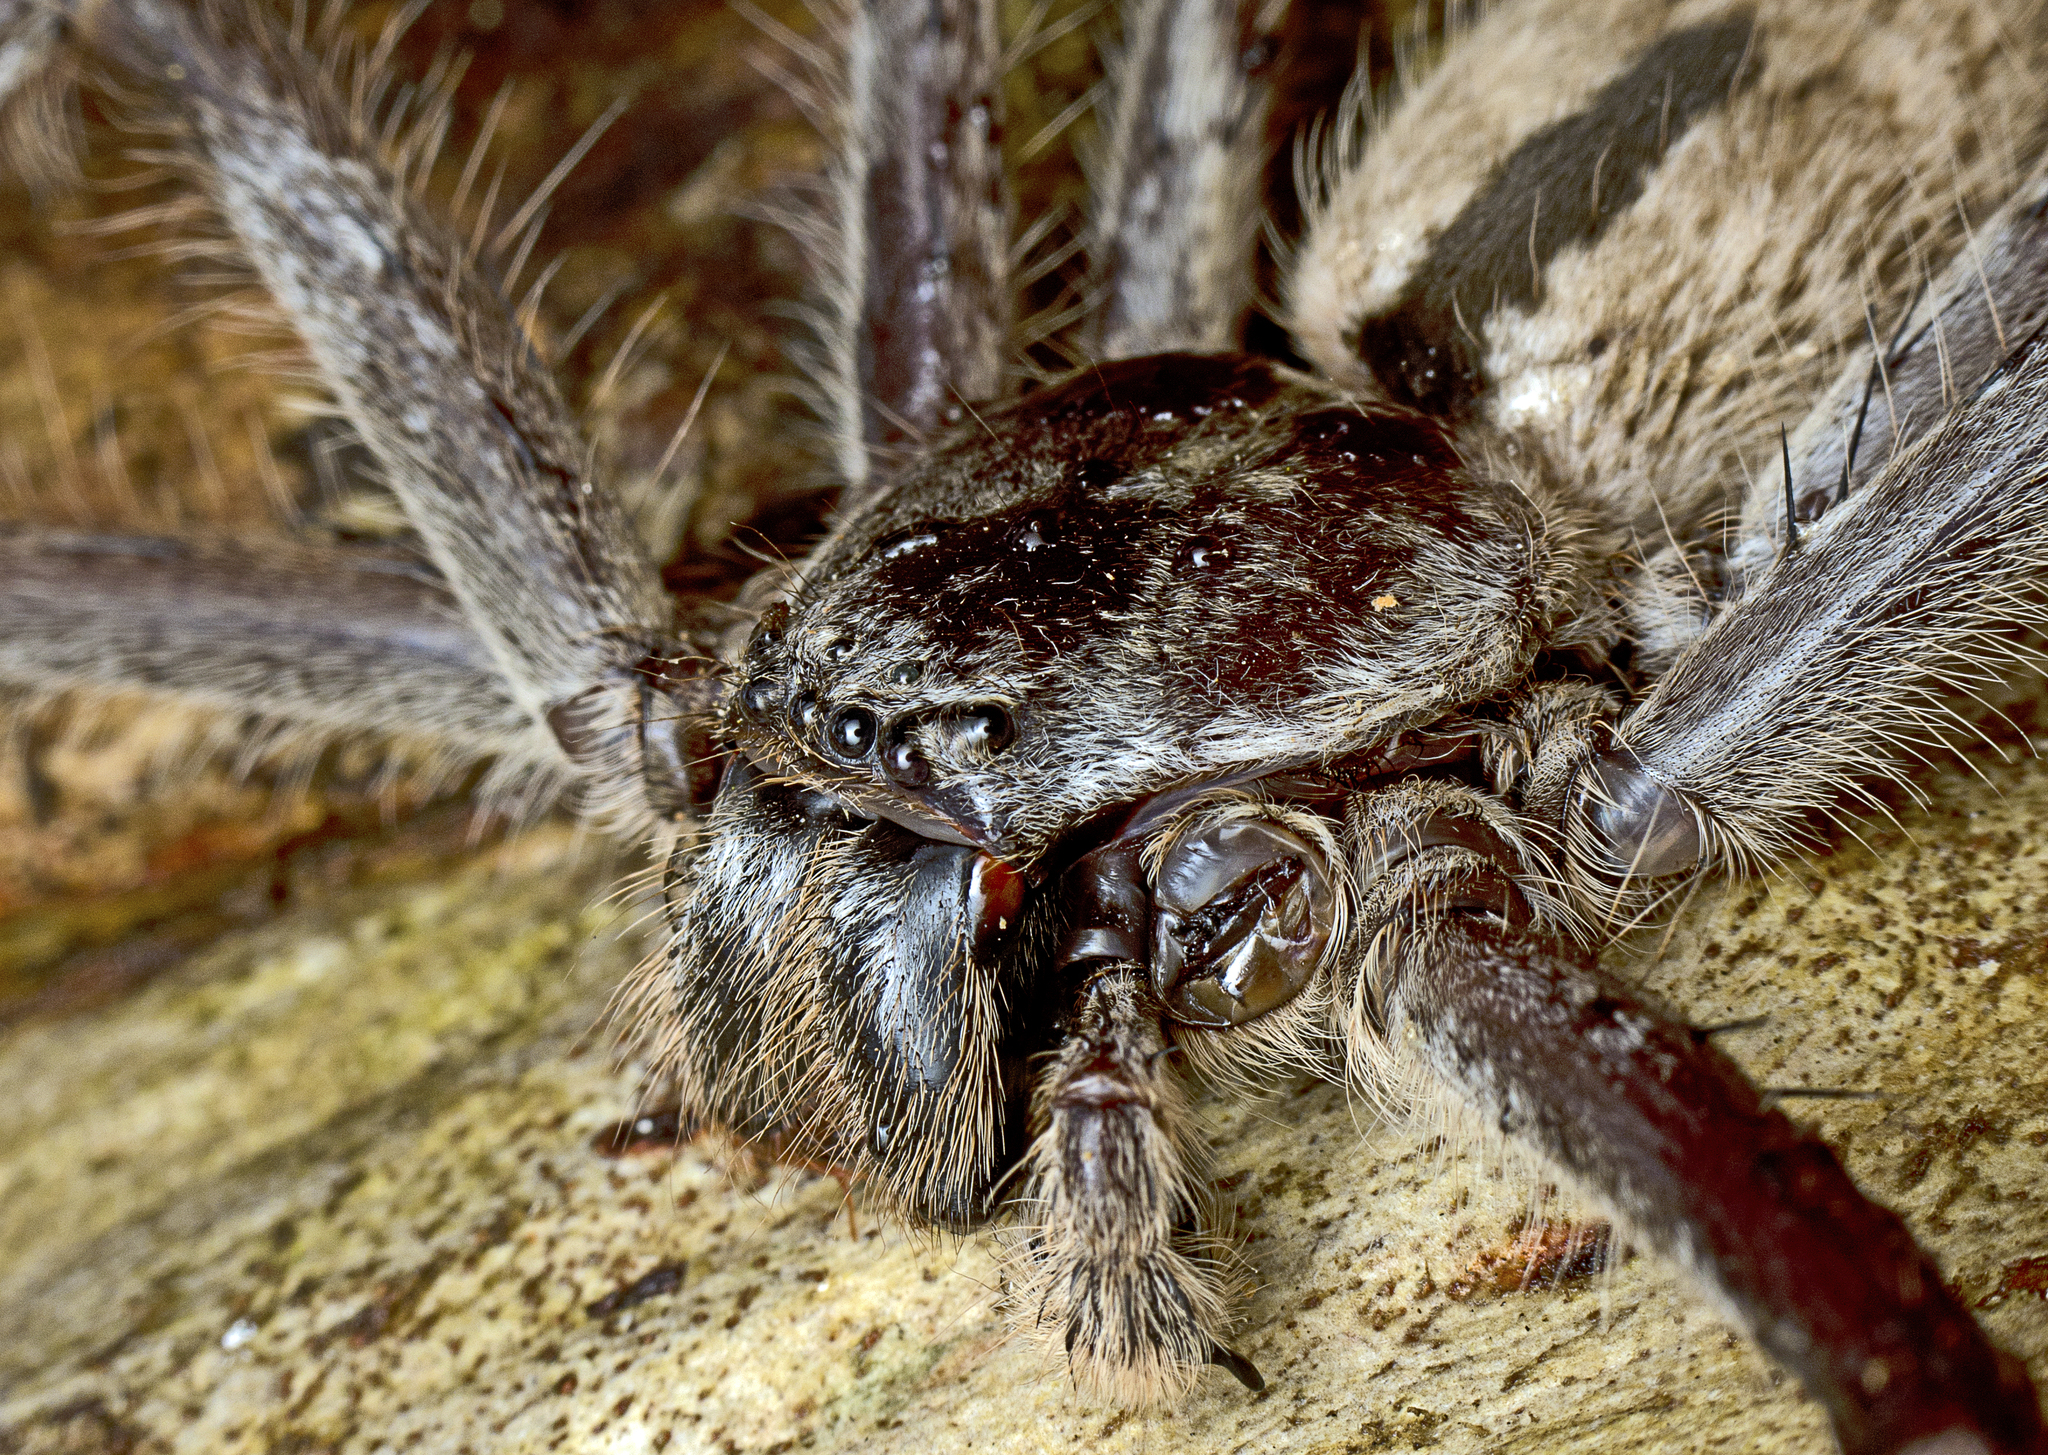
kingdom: Animalia
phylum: Arthropoda
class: Arachnida
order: Araneae
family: Sparassidae
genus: Holconia
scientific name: Holconia immanis
